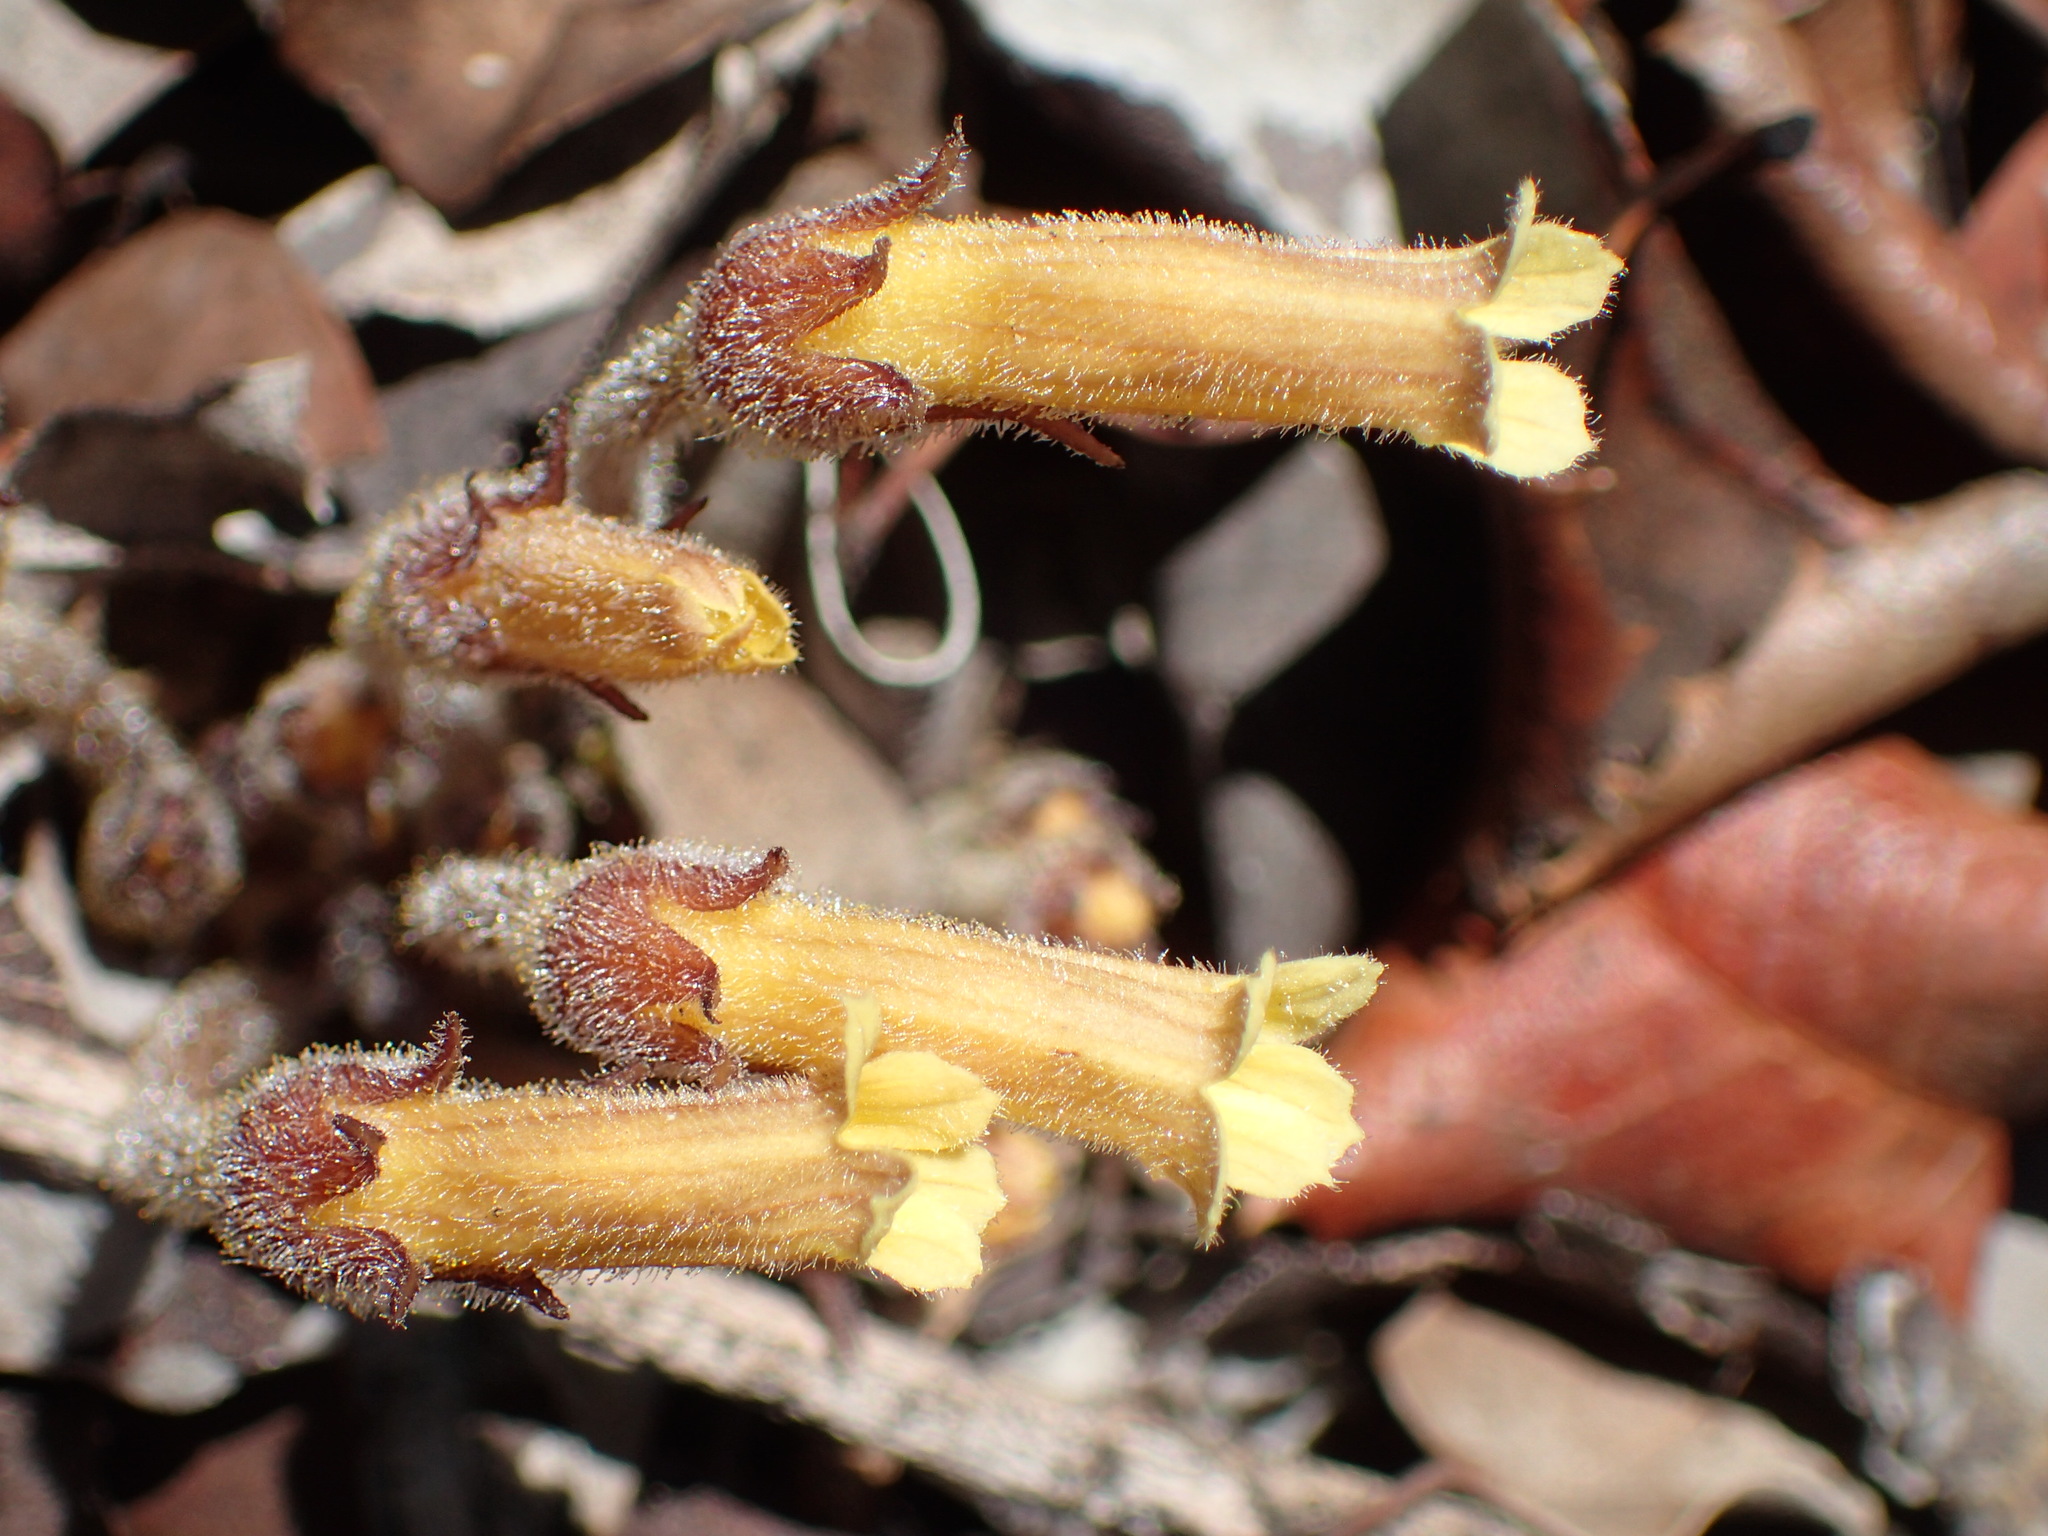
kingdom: Plantae
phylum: Tracheophyta
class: Magnoliopsida
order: Lamiales
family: Orobanchaceae
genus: Aphyllon
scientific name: Aphyllon franciscanum
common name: San francisco broomrape
